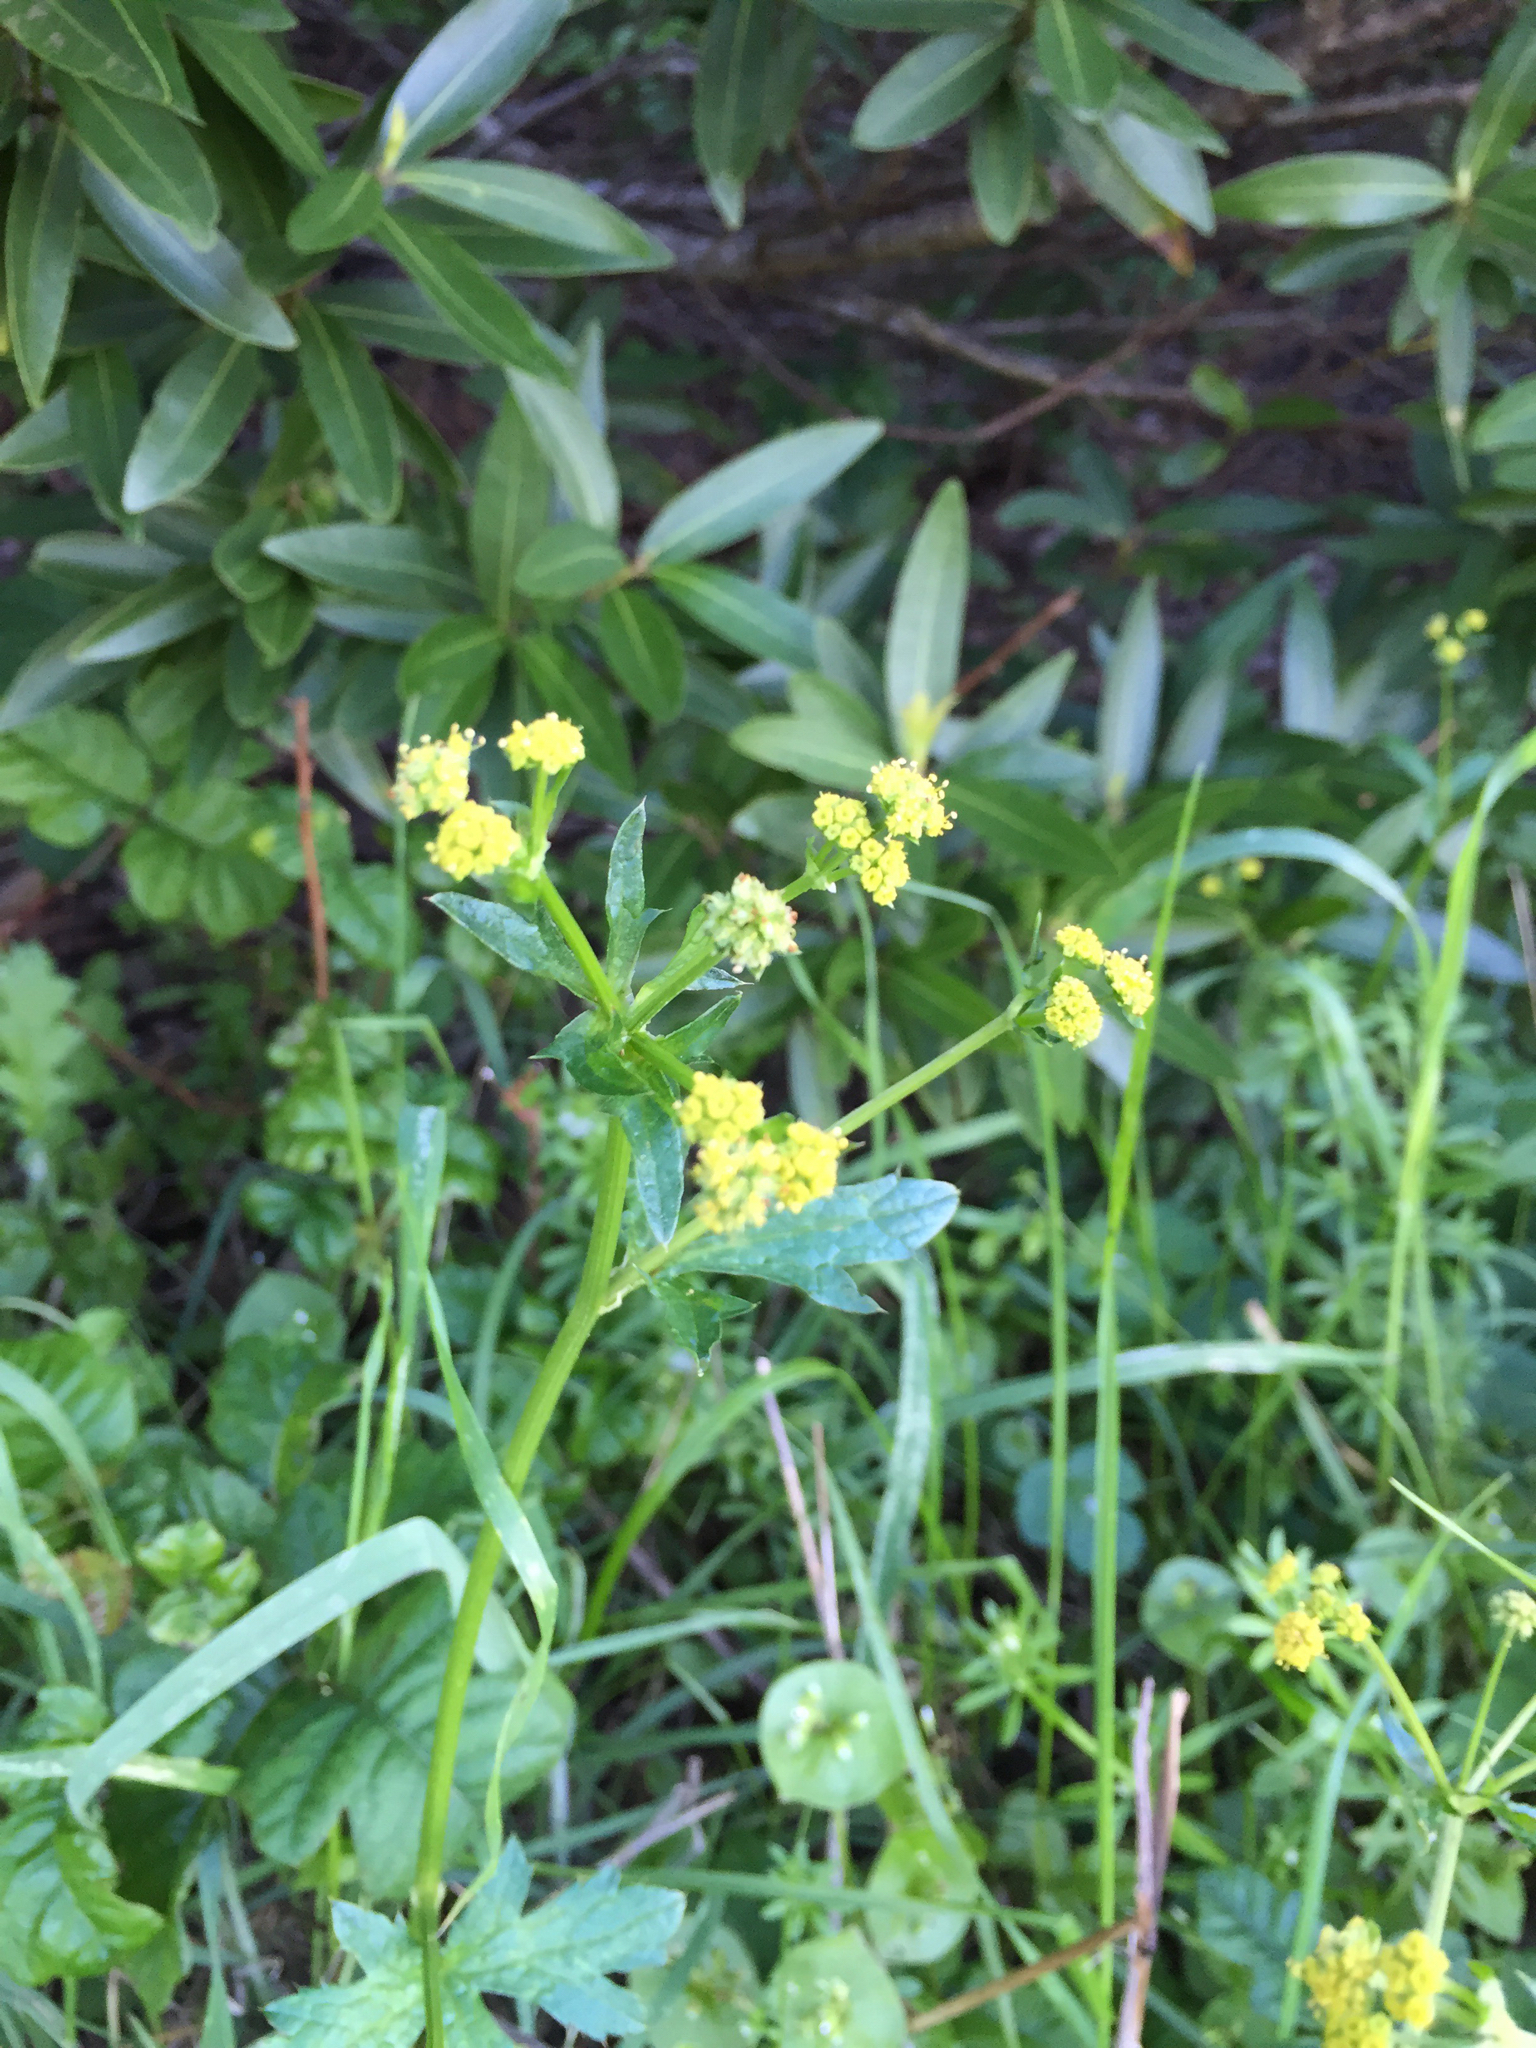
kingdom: Plantae
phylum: Tracheophyta
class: Magnoliopsida
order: Apiales
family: Apiaceae
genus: Sanicula
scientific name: Sanicula crassicaulis
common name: Western snakeroot
